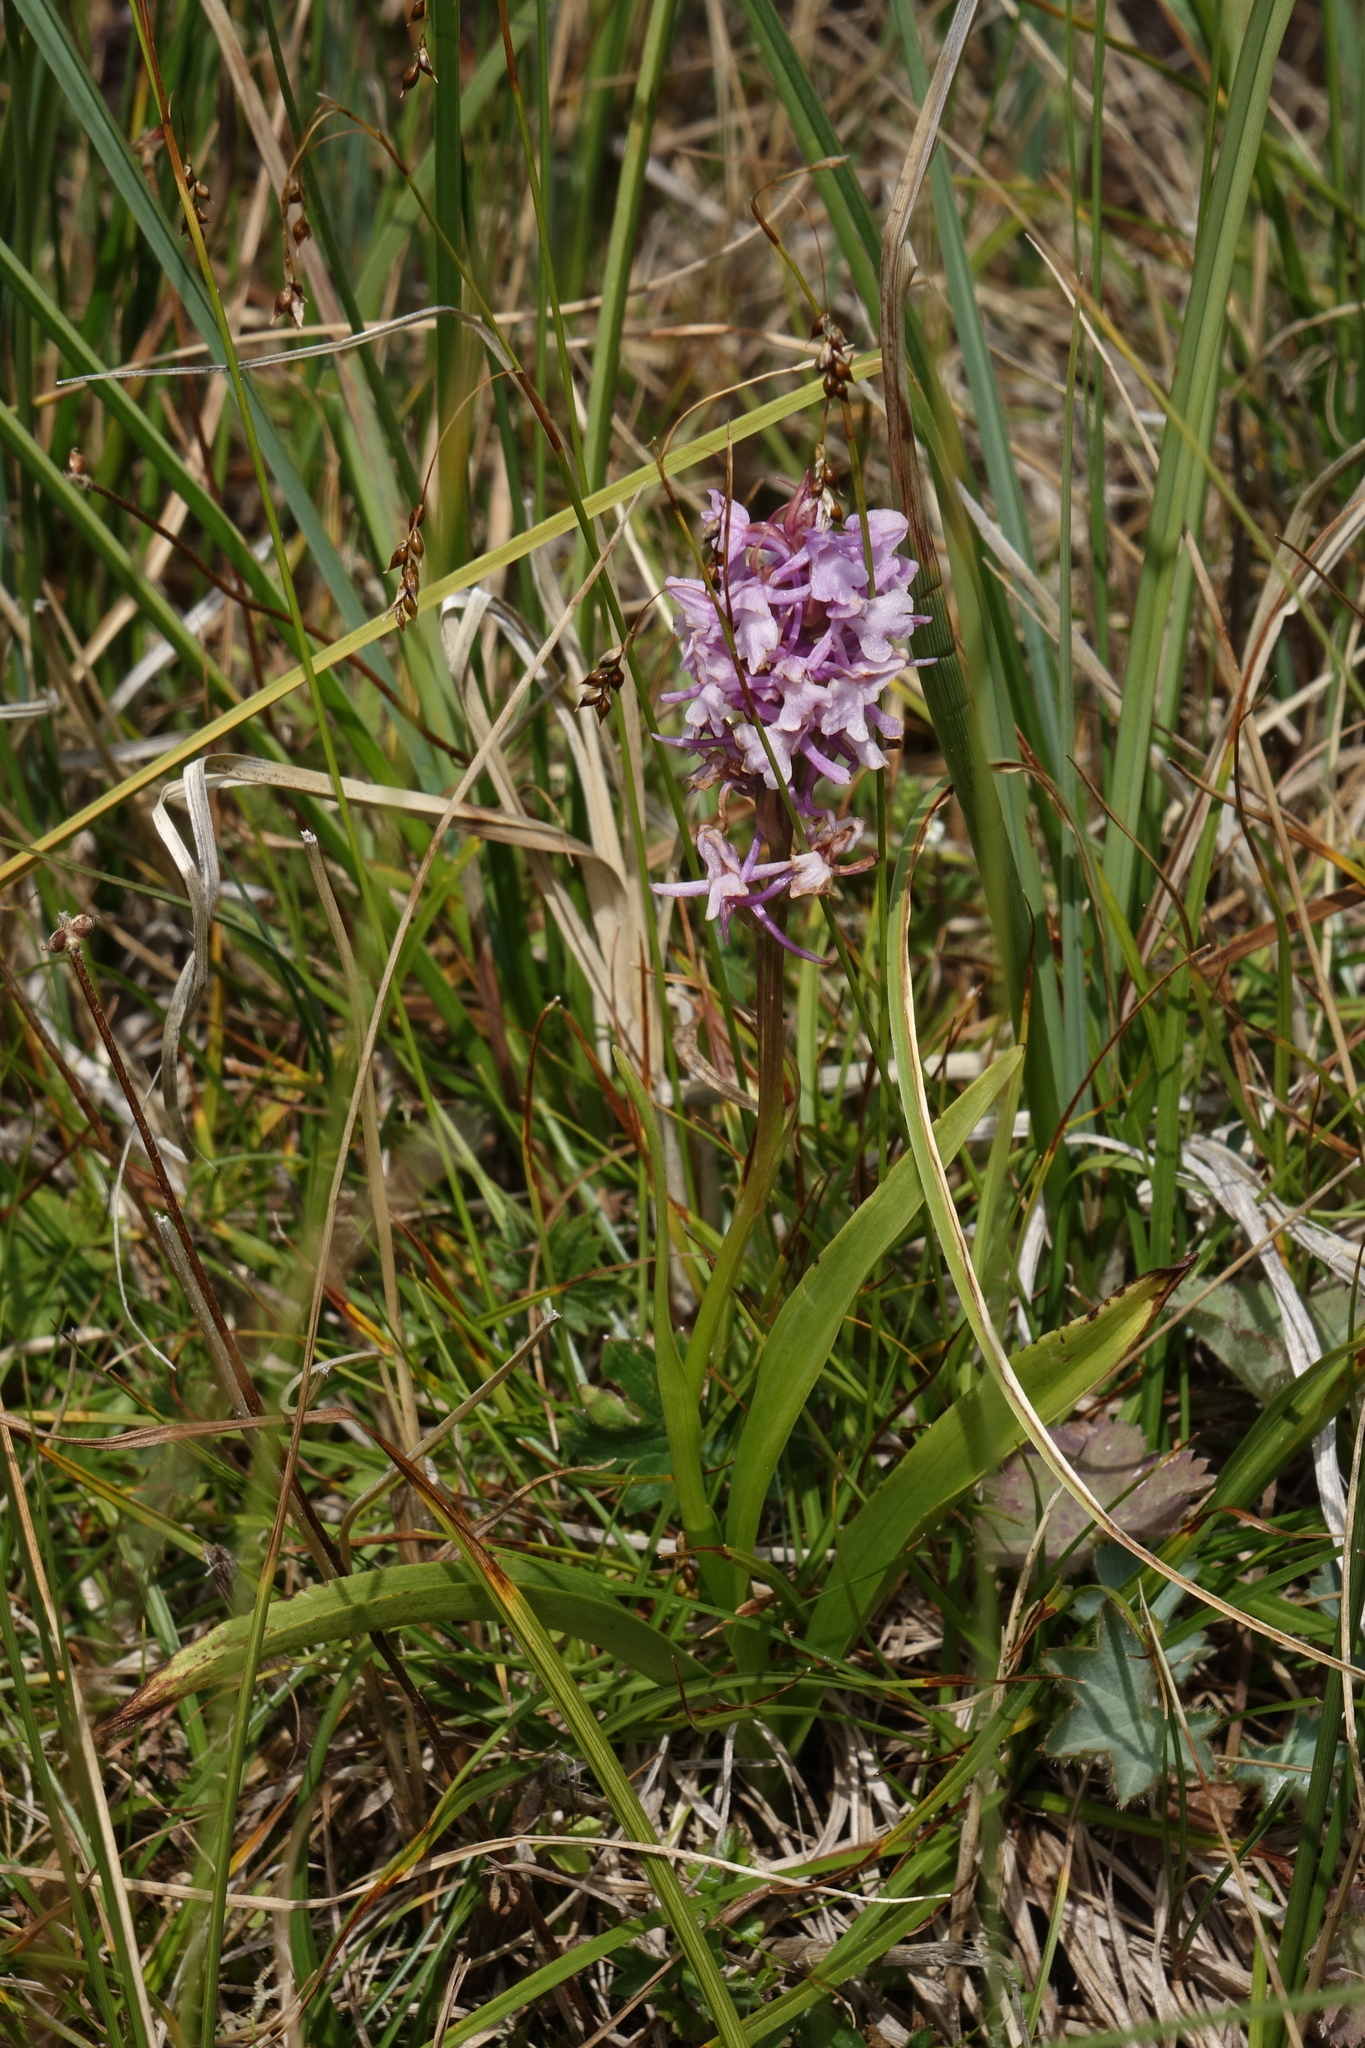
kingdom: Plantae
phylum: Tracheophyta
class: Liliopsida
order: Asparagales
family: Orchidaceae
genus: Gymnadenia
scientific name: Gymnadenia conopsea
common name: Fragrant orchid
